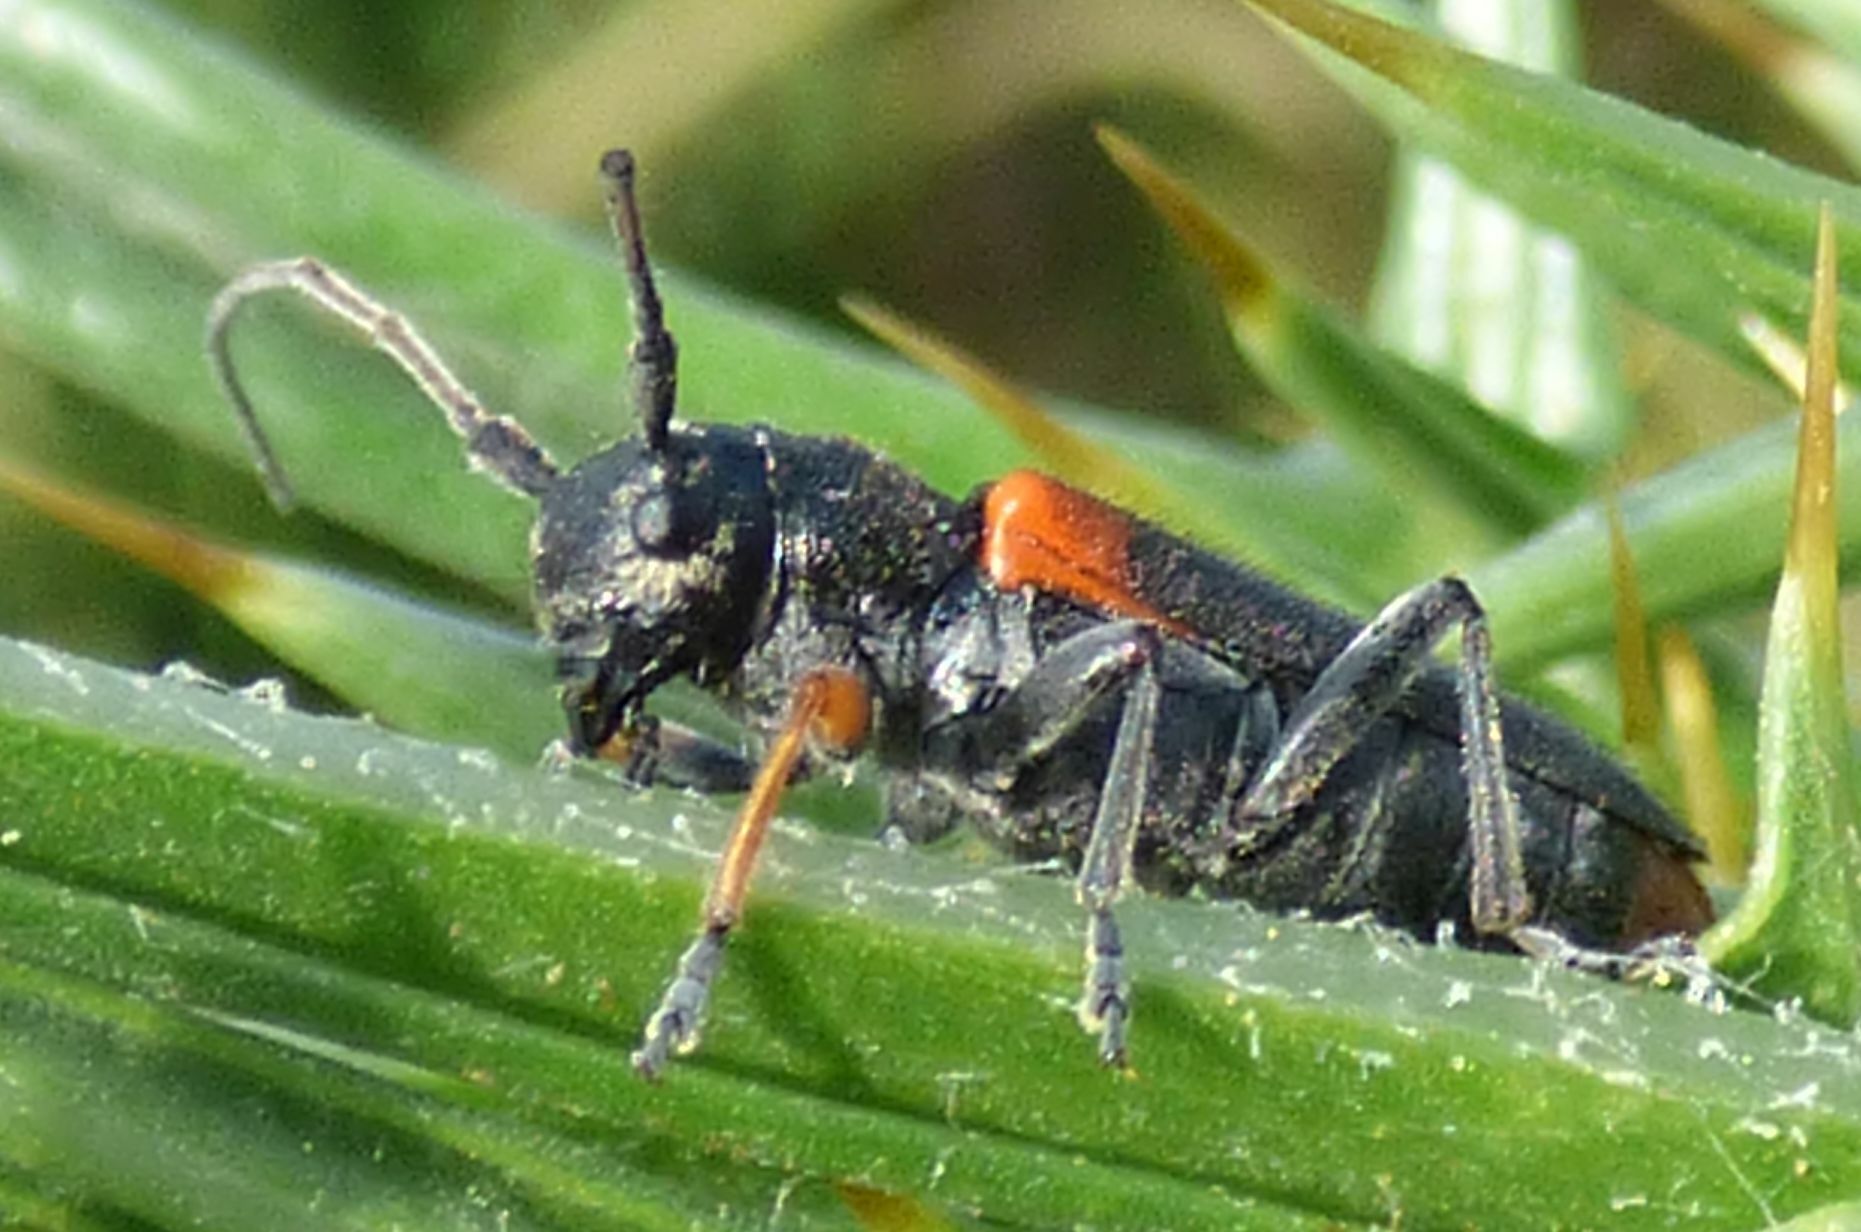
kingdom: Animalia
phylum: Arthropoda
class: Insecta
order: Coleoptera
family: Cerambycidae
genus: Phytoecia
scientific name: Phytoecia humeralis
